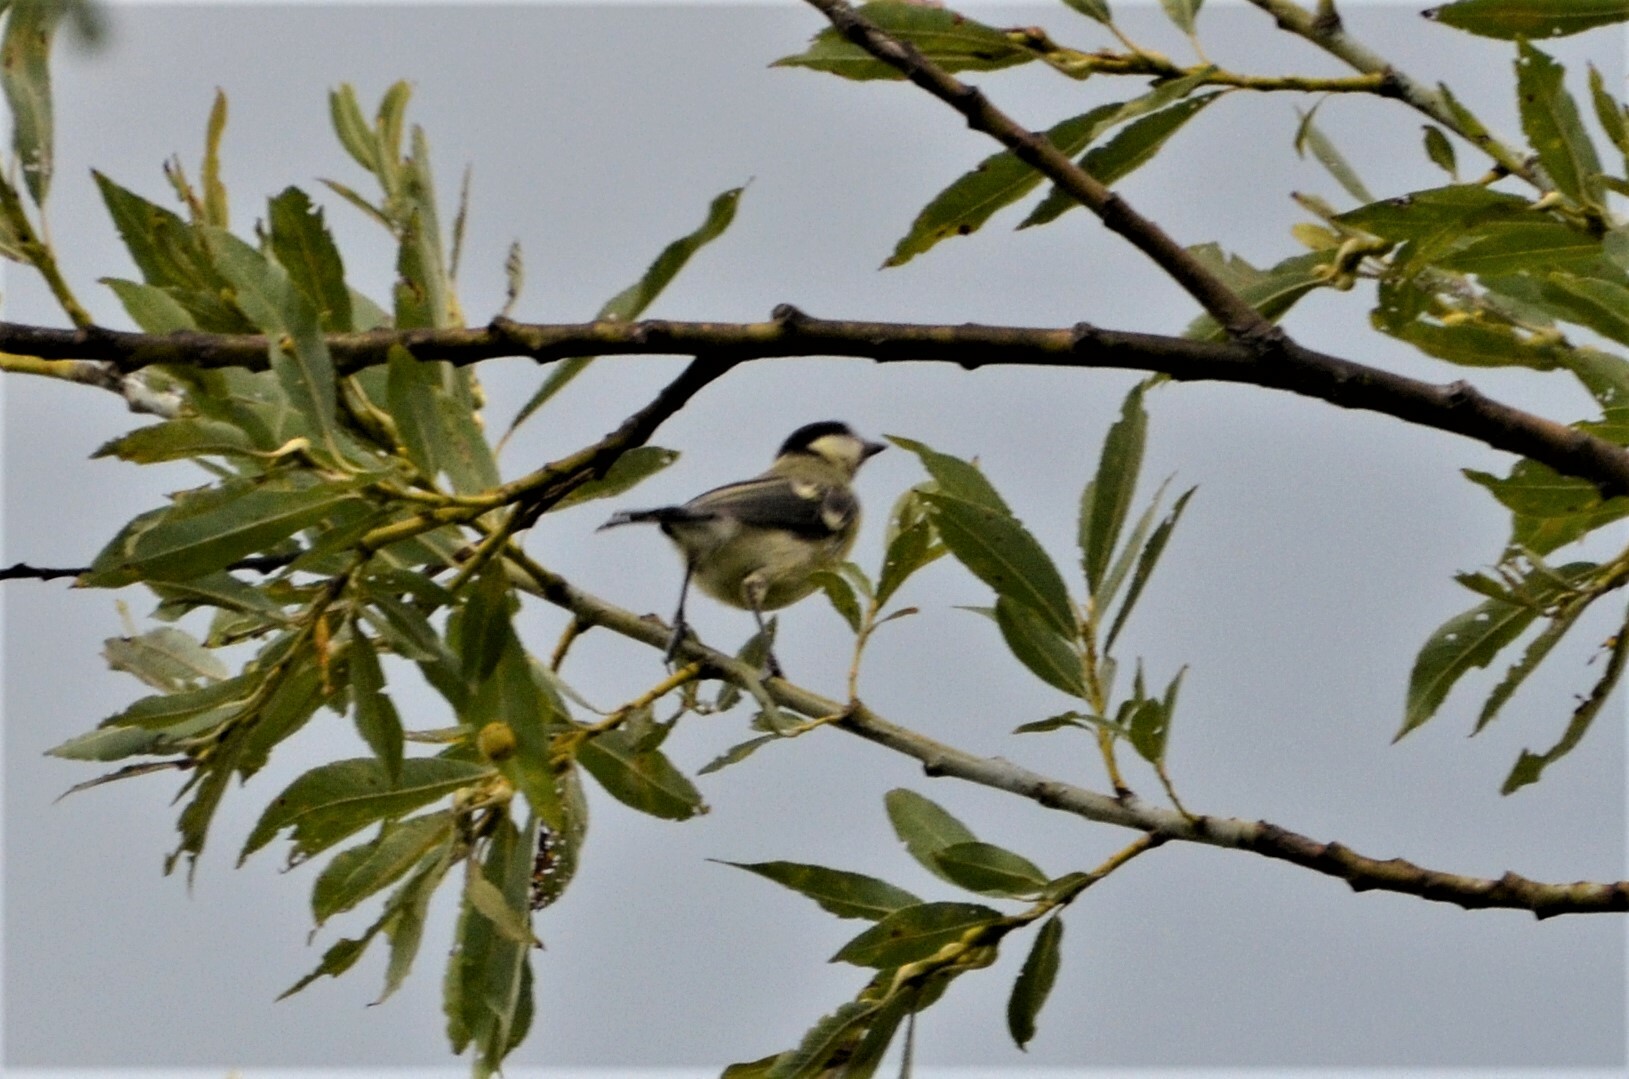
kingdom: Animalia
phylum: Chordata
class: Aves
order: Passeriformes
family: Paridae
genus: Parus
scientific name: Parus major
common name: Great tit
